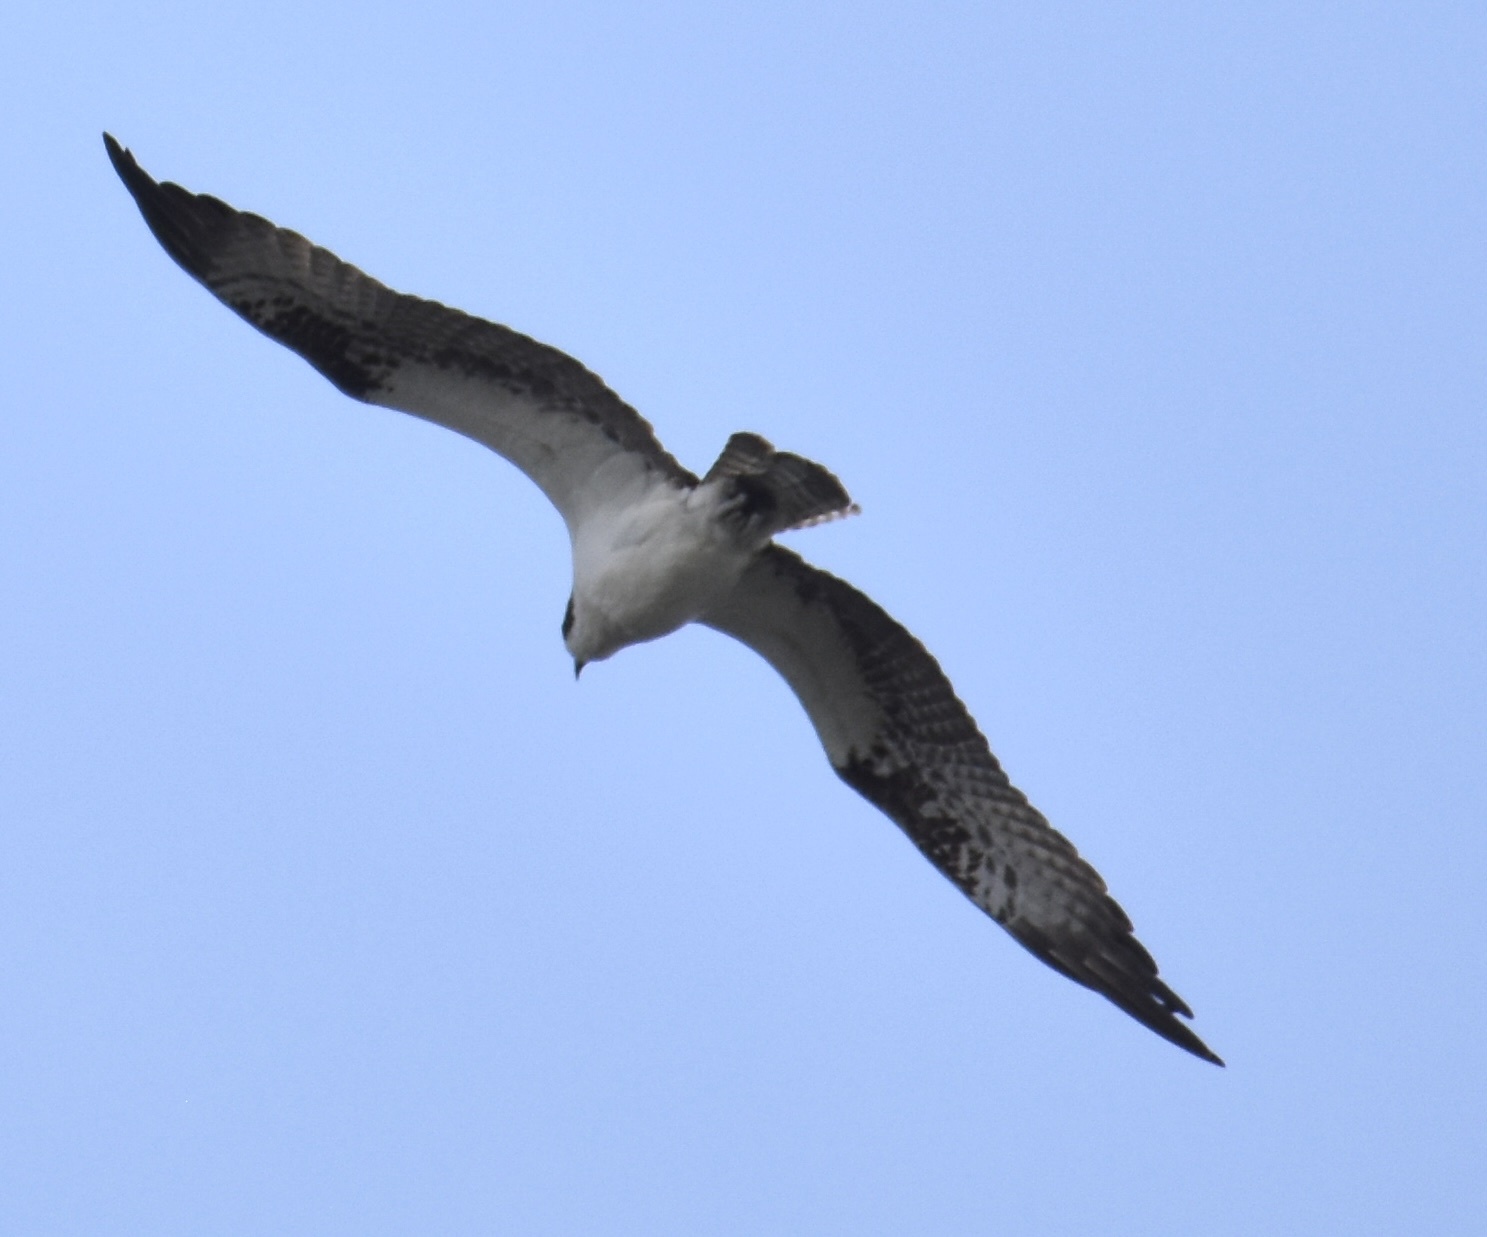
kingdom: Animalia
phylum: Chordata
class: Aves
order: Accipitriformes
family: Pandionidae
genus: Pandion
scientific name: Pandion haliaetus
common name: Osprey
